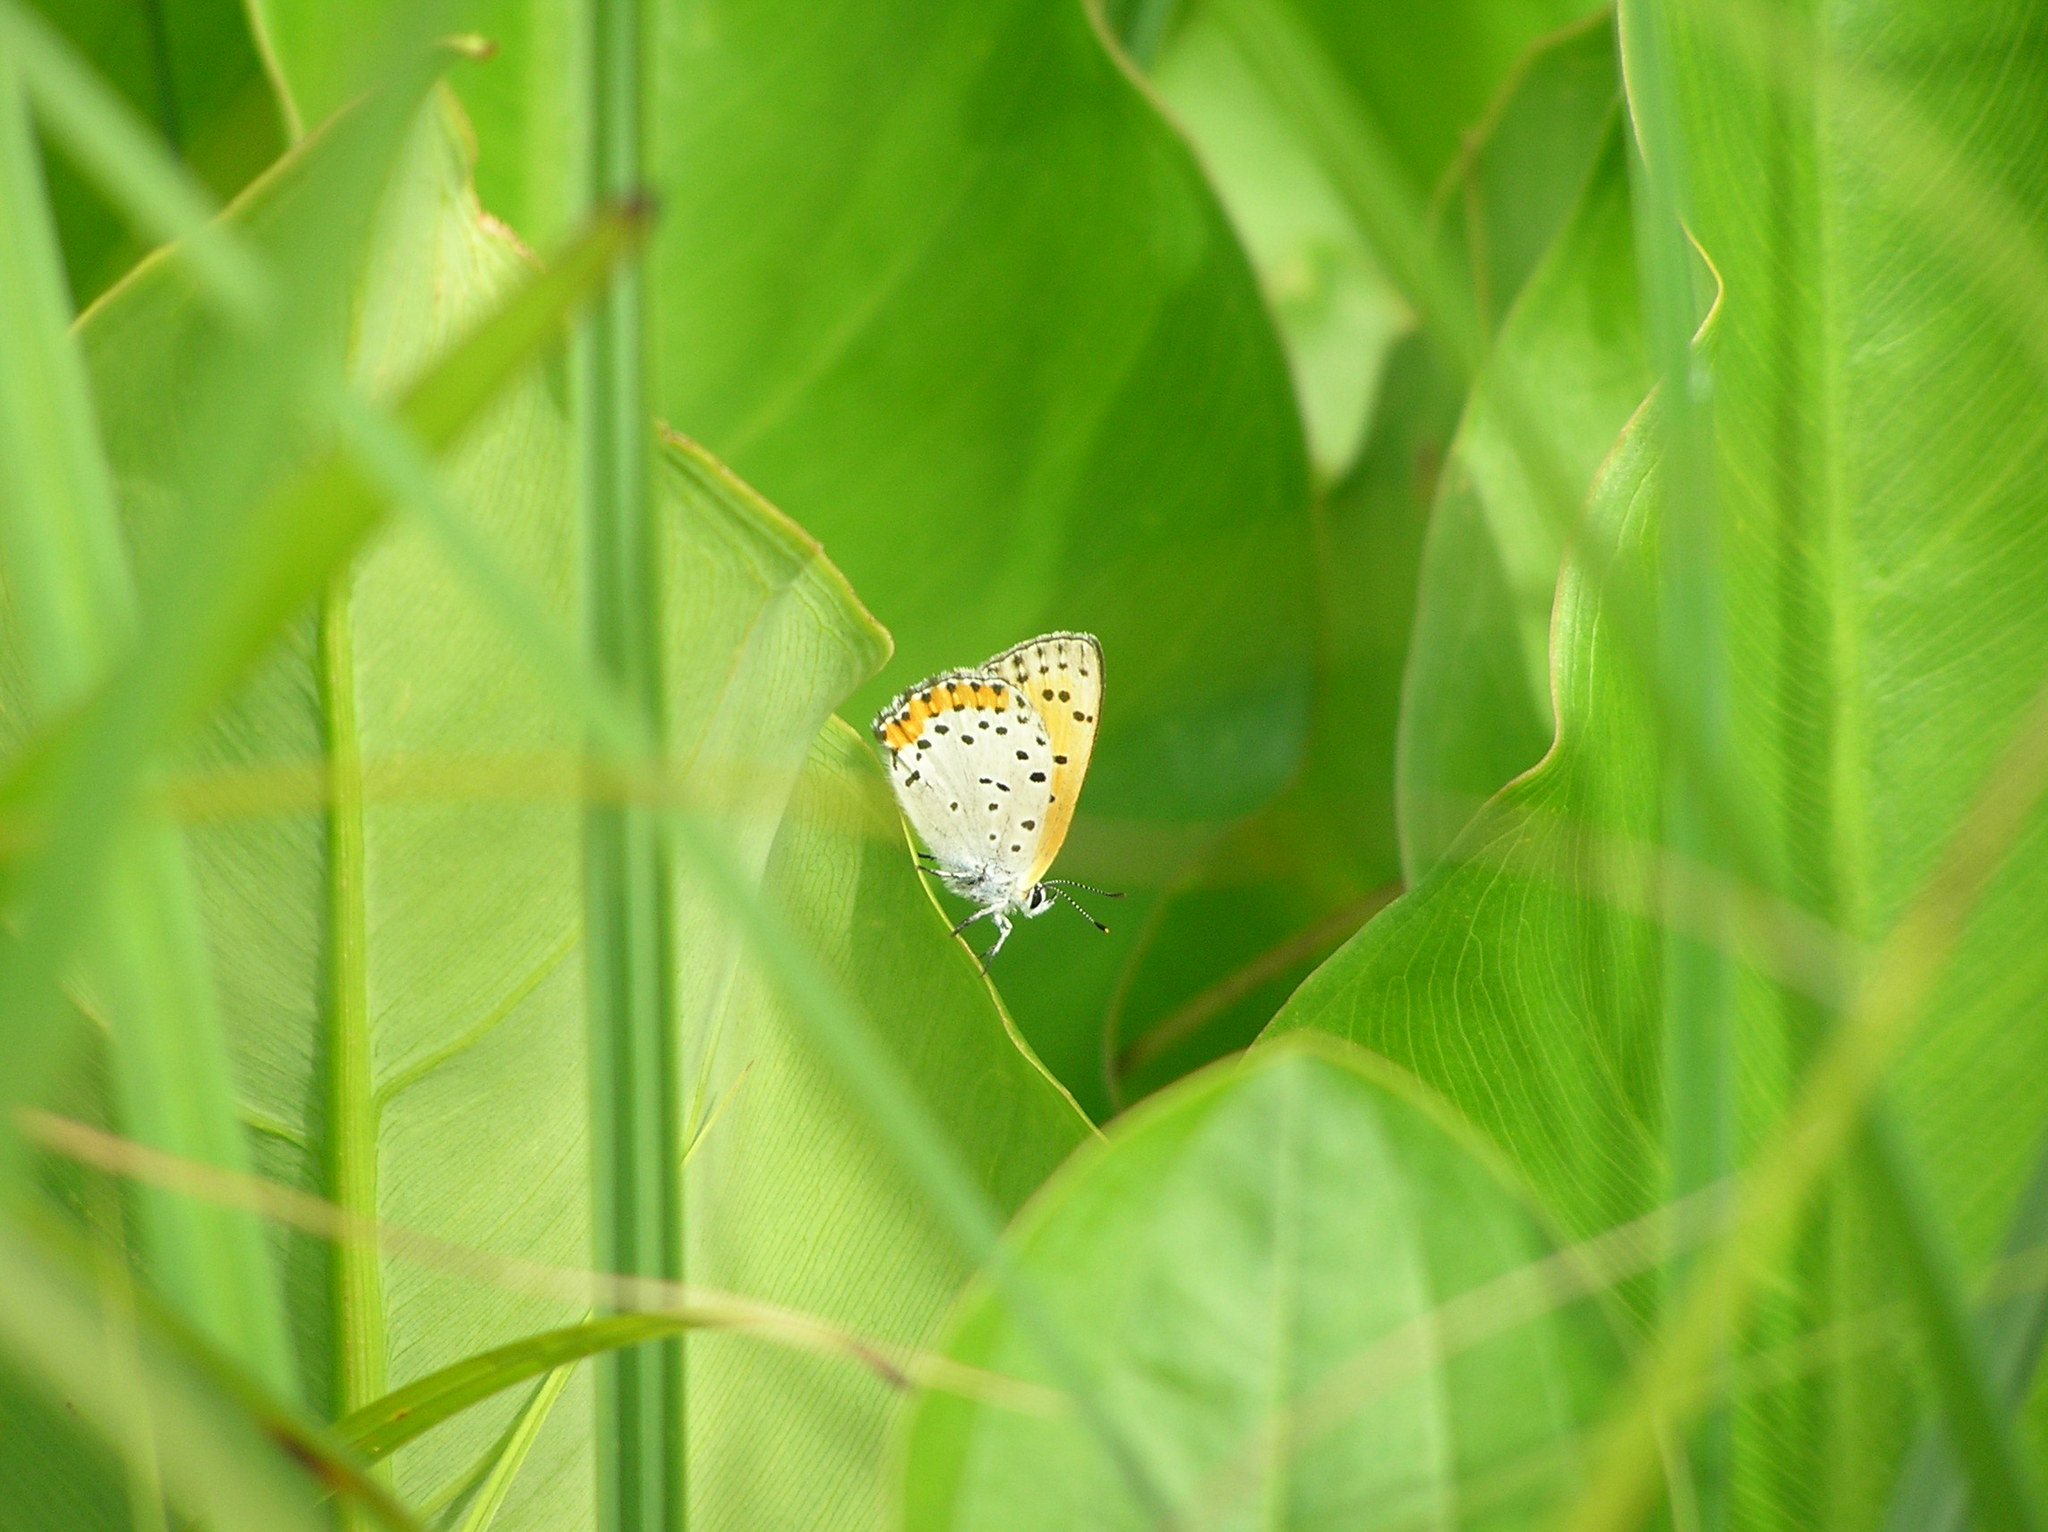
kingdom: Animalia
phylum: Arthropoda
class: Insecta
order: Lepidoptera
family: Lycaenidae
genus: Tharsalea
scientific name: Tharsalea hyllus
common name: Bronze copper
